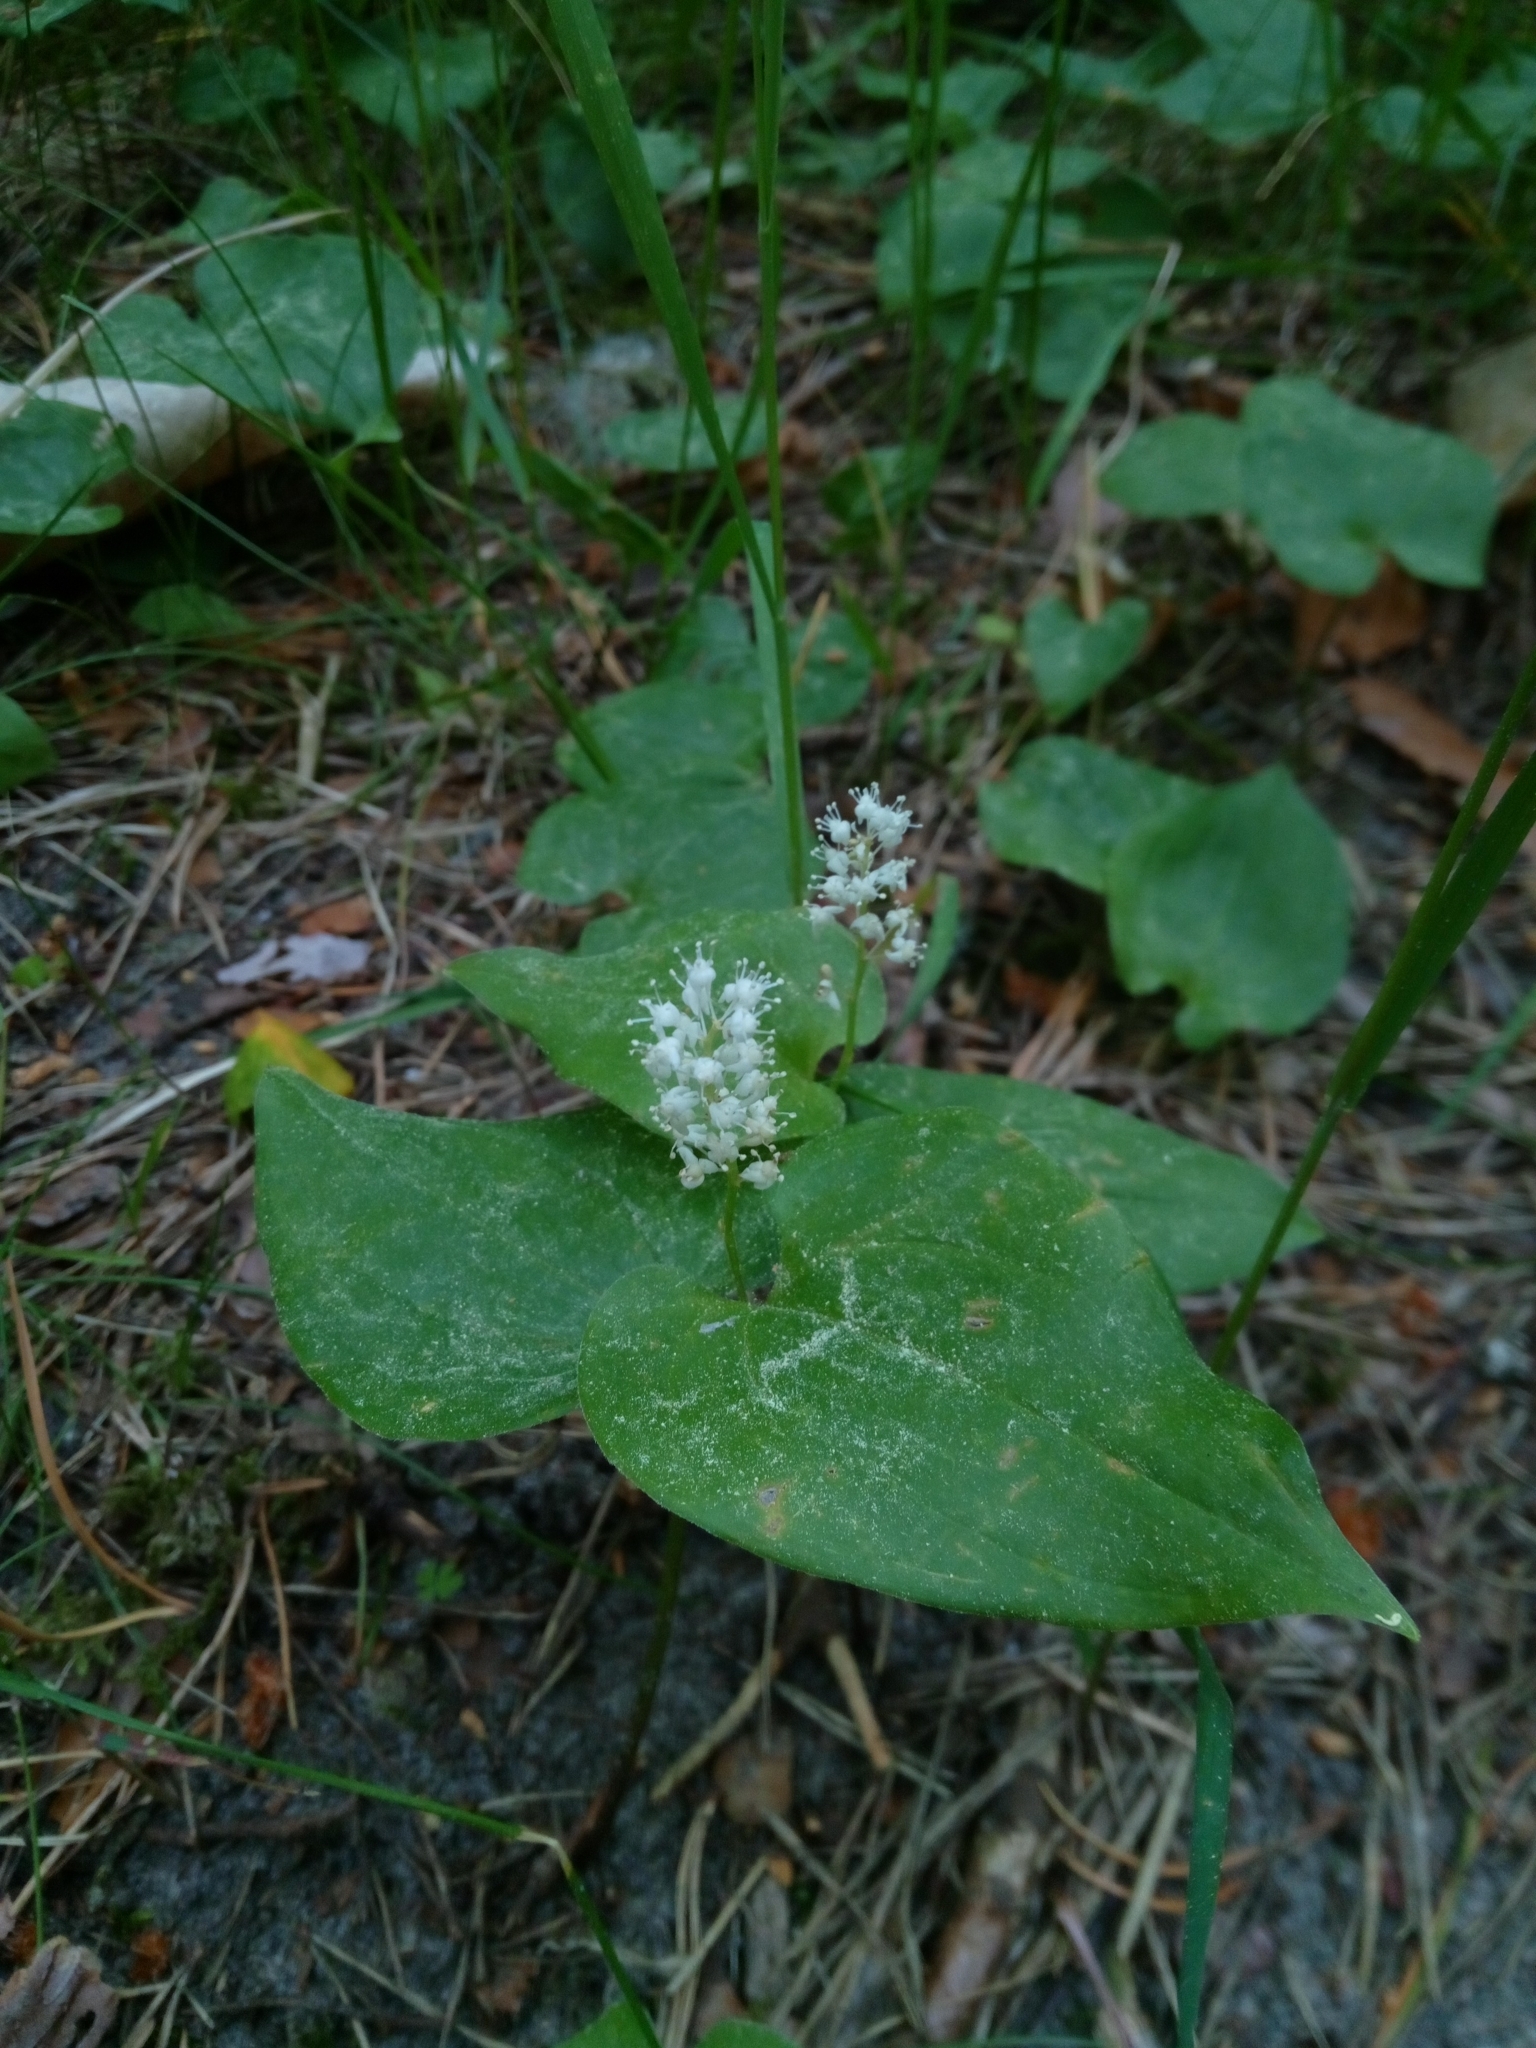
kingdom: Plantae
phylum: Tracheophyta
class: Liliopsida
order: Asparagales
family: Asparagaceae
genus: Maianthemum
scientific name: Maianthemum bifolium
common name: May lily
